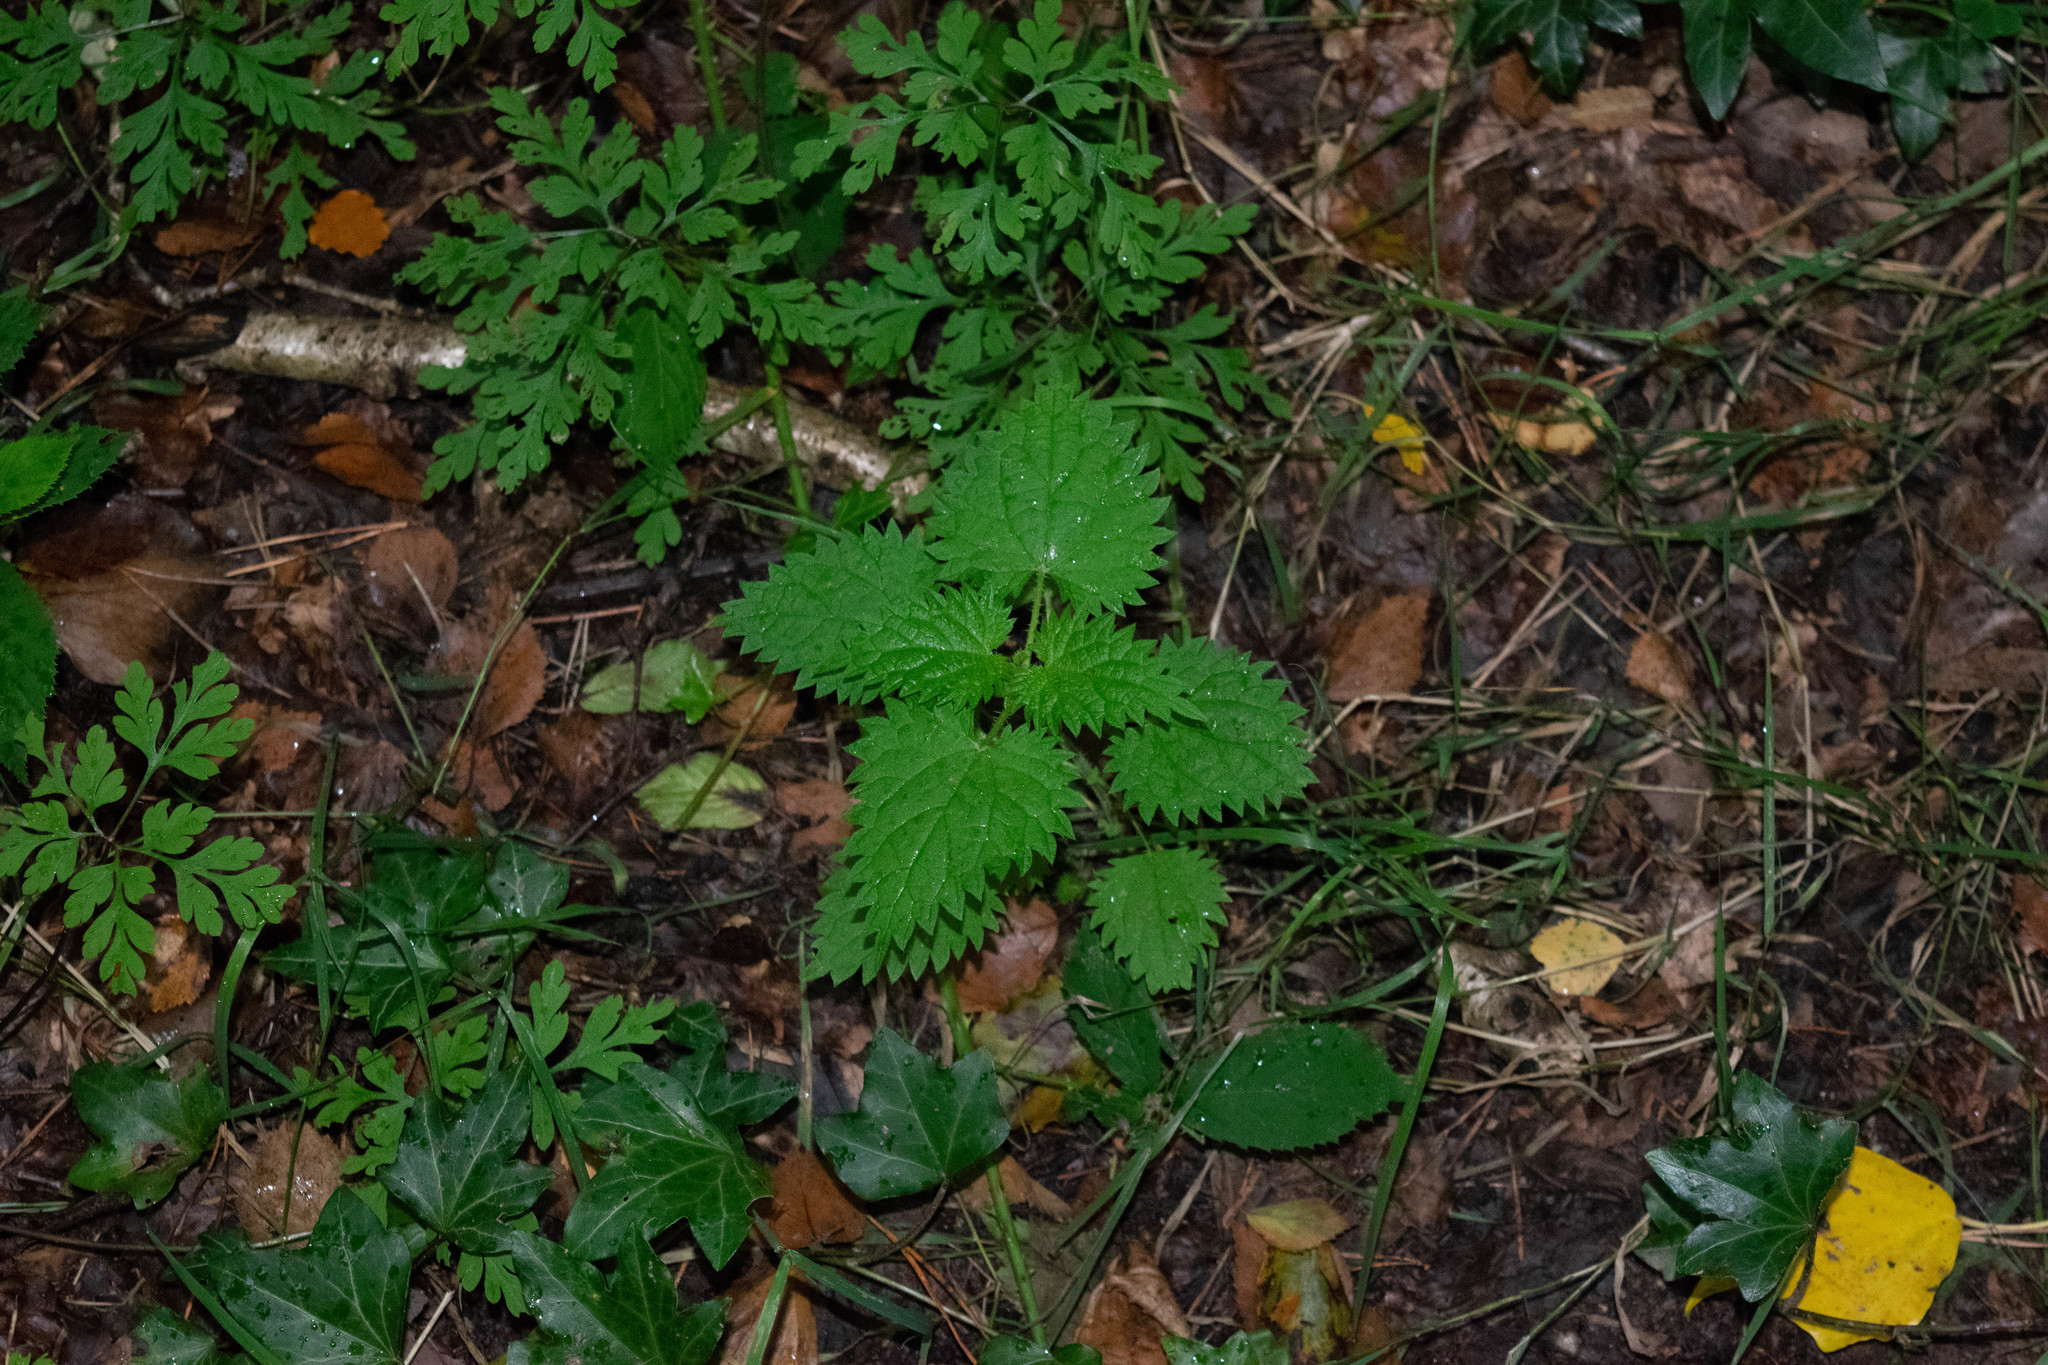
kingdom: Plantae
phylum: Tracheophyta
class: Magnoliopsida
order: Rosales
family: Urticaceae
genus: Urtica
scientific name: Urtica dioica
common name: Common nettle
